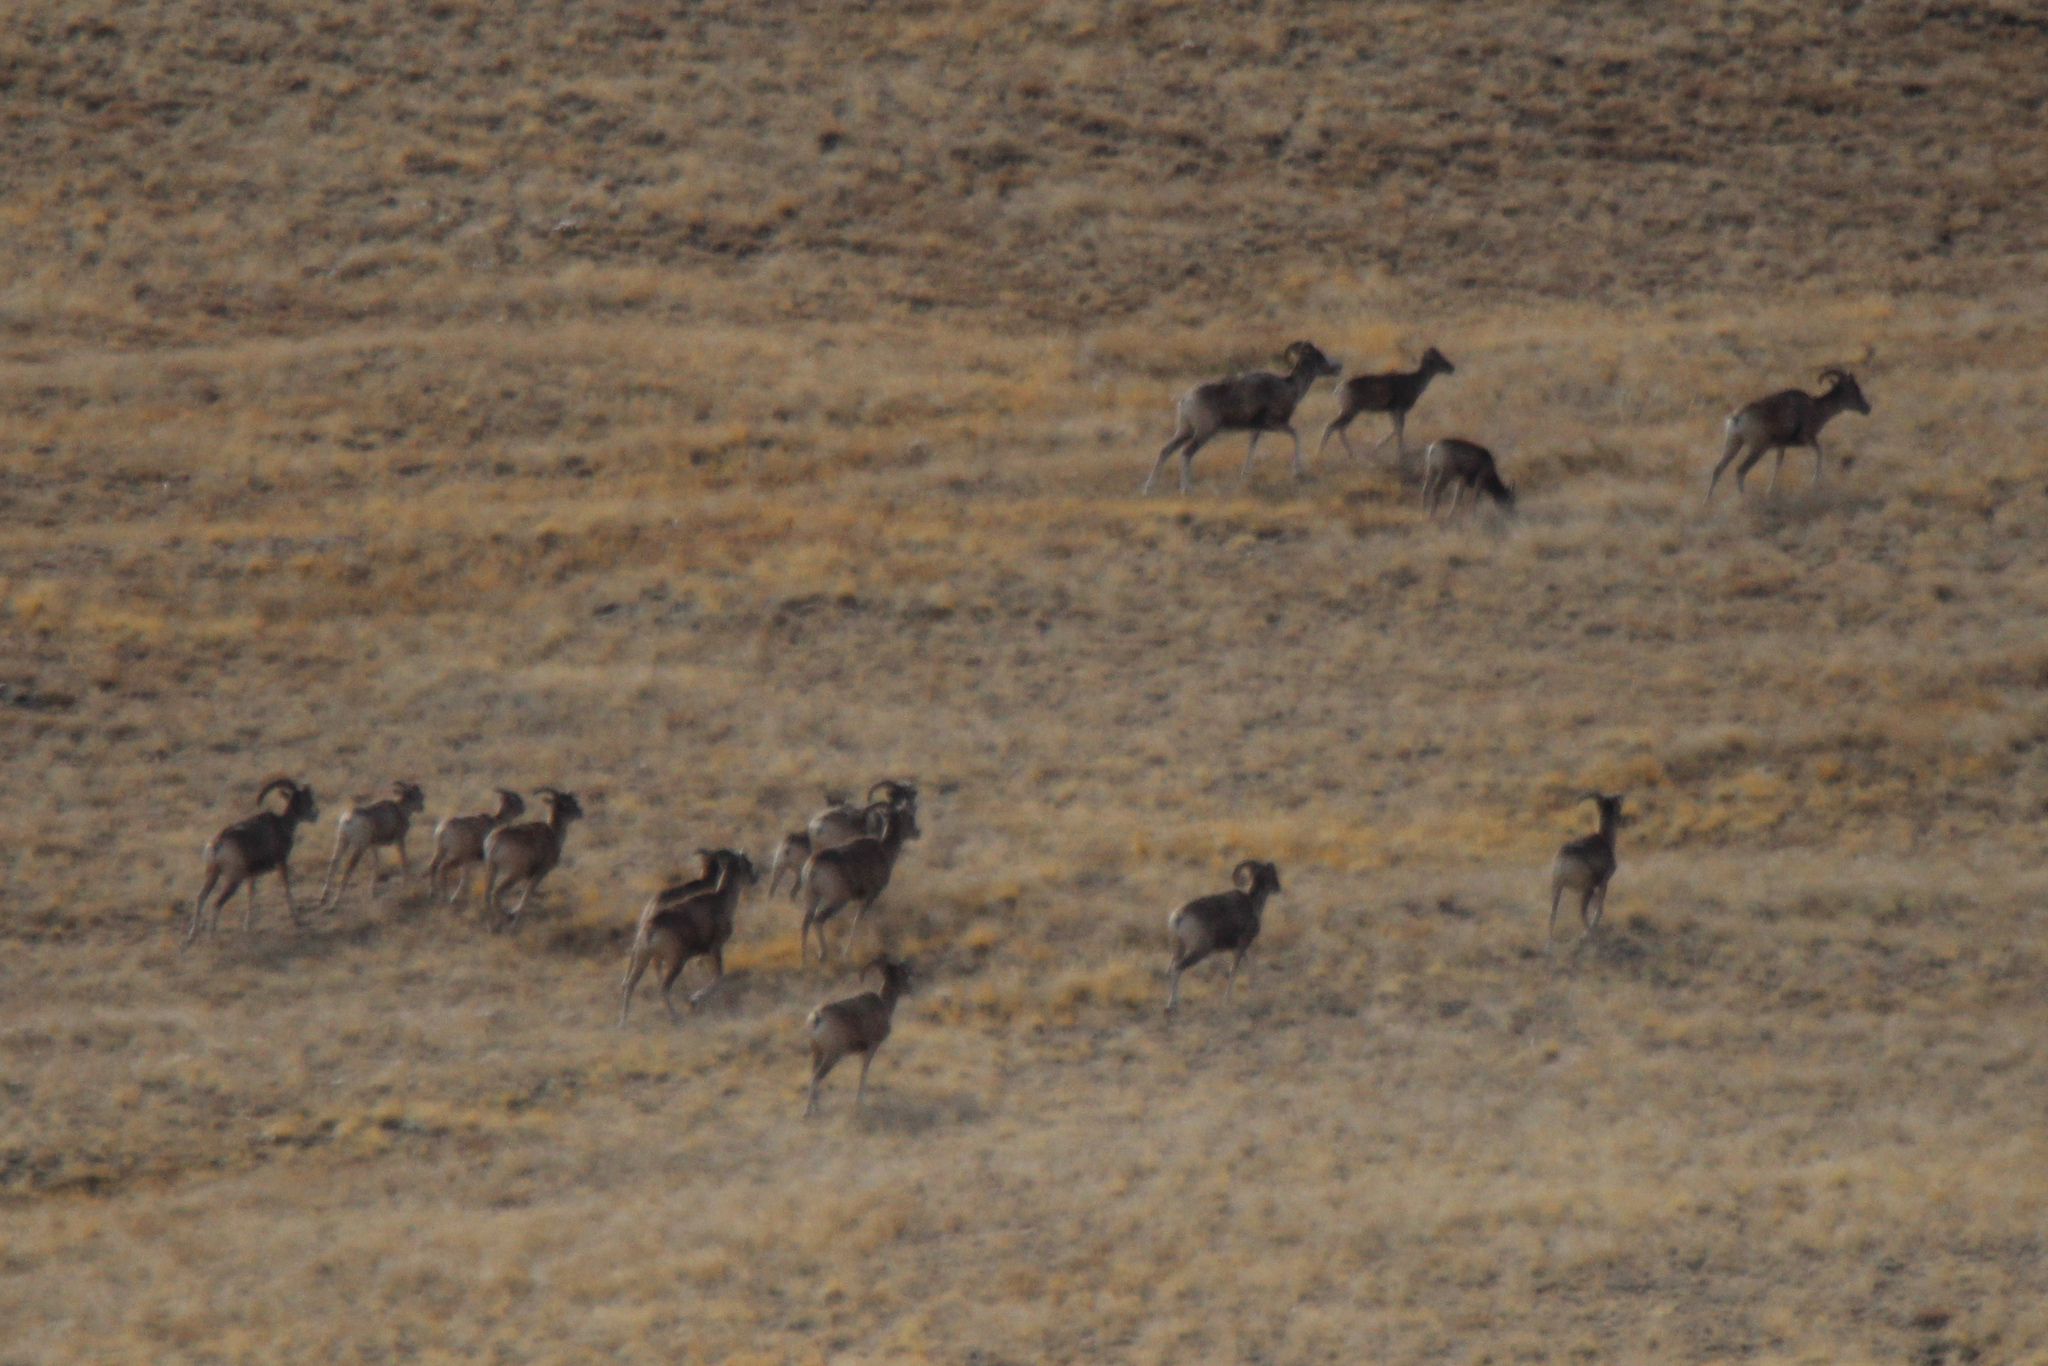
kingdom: Animalia
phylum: Chordata
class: Mammalia
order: Artiodactyla
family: Bovidae
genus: Ovis
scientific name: Ovis ammon
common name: Argali
